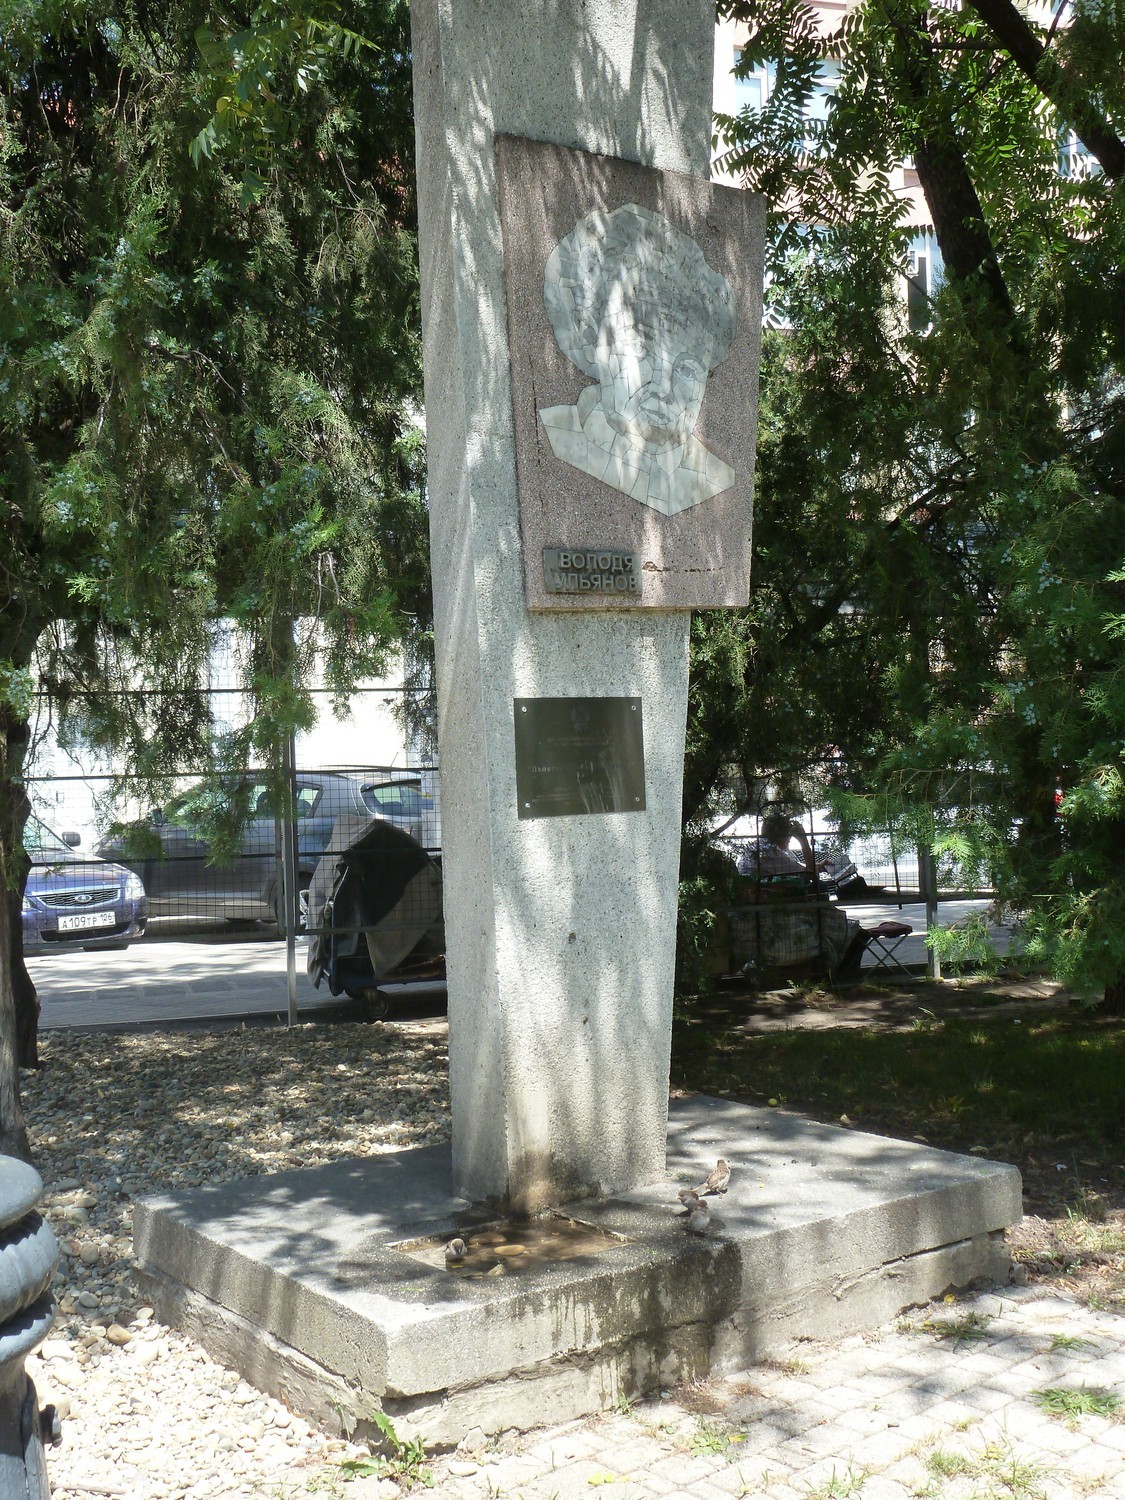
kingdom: Animalia
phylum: Chordata
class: Aves
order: Passeriformes
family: Passeridae
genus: Passer
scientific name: Passer domesticus
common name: House sparrow
